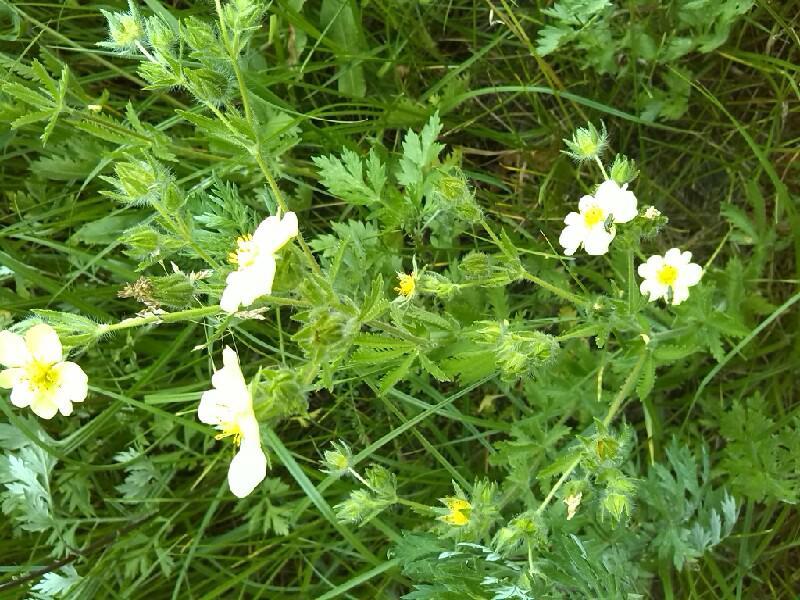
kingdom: Plantae
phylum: Tracheophyta
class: Magnoliopsida
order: Rosales
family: Rosaceae
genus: Potentilla
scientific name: Potentilla recta
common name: Sulphur cinquefoil
